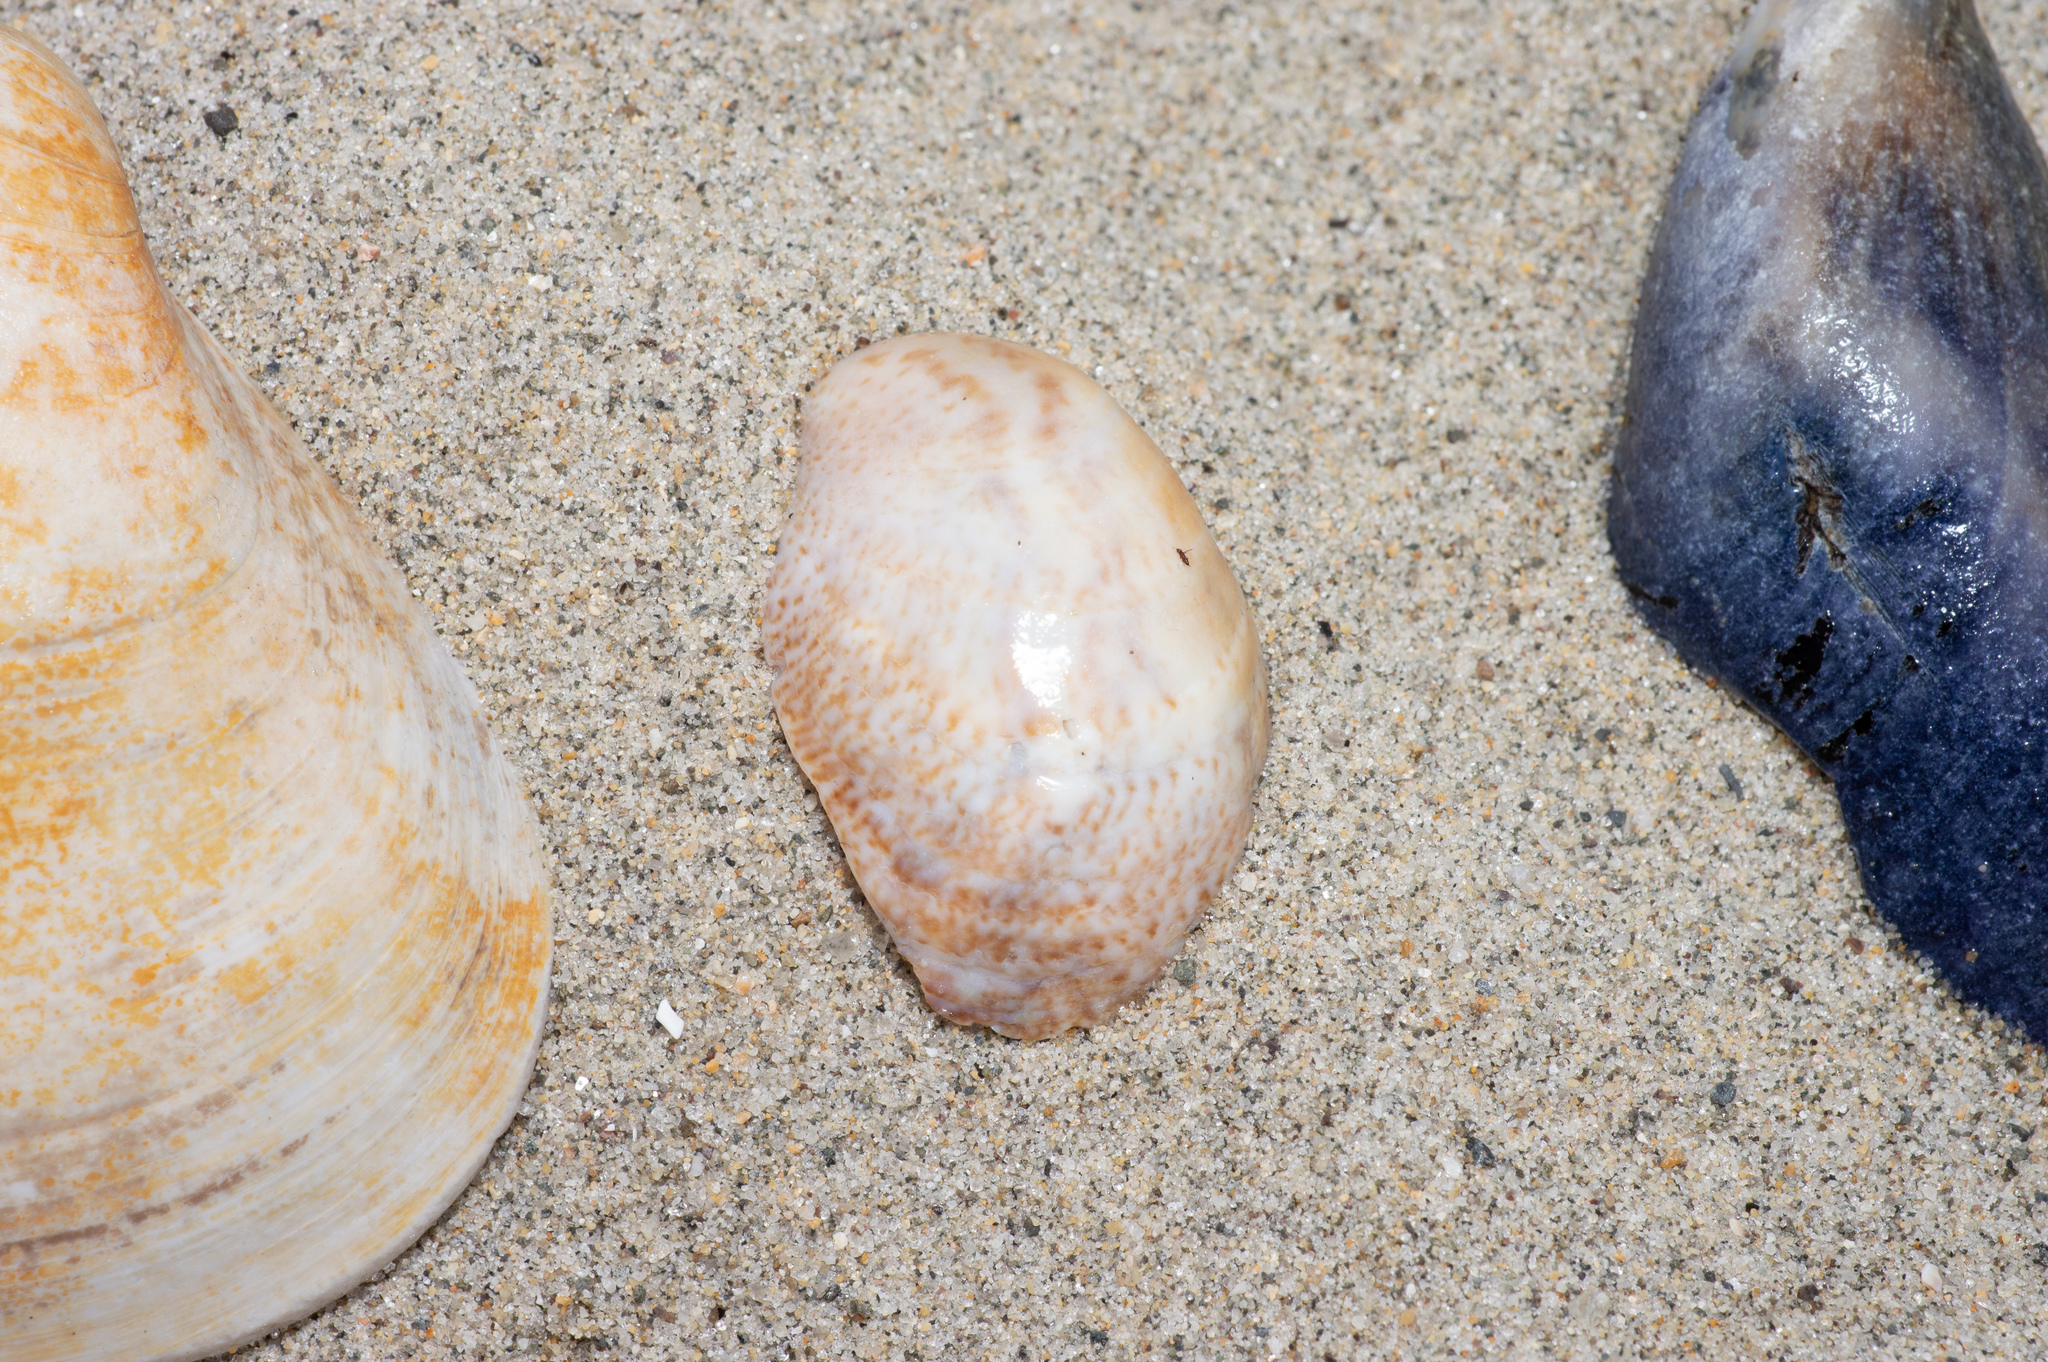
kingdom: Animalia
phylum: Mollusca
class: Gastropoda
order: Littorinimorpha
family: Calyptraeidae
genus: Crepidula
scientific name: Crepidula fornicata
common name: Slipper limpet
